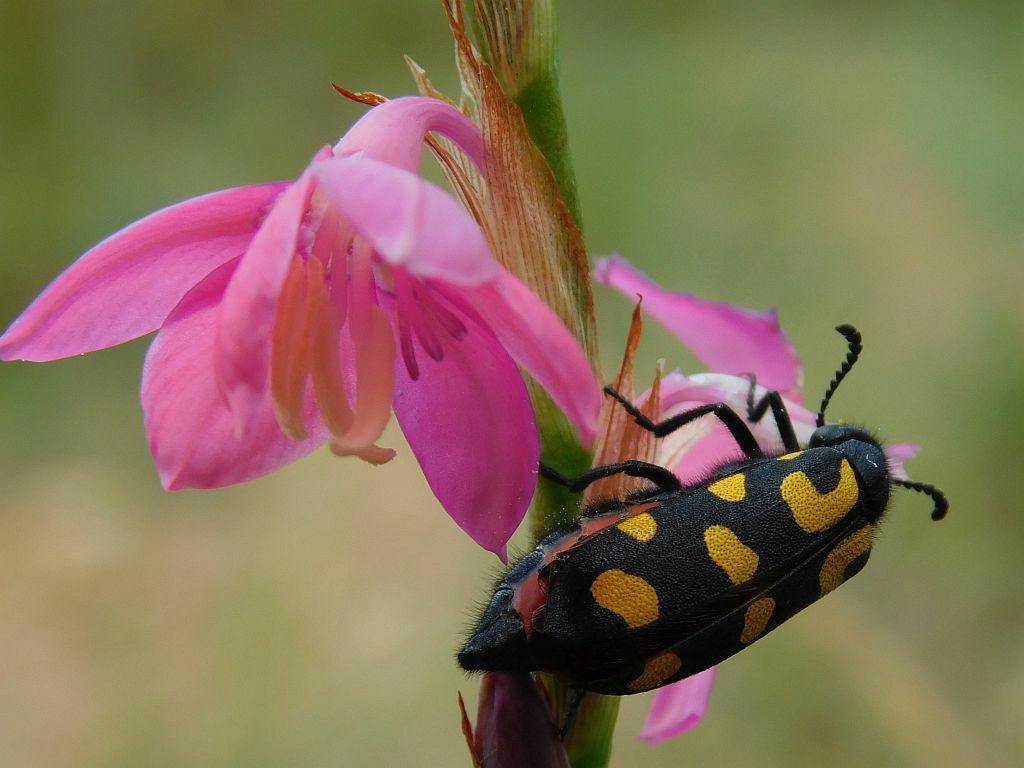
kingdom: Animalia
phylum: Arthropoda
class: Insecta
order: Coleoptera
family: Meloidae
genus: Ceroctis
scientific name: Ceroctis capensis
